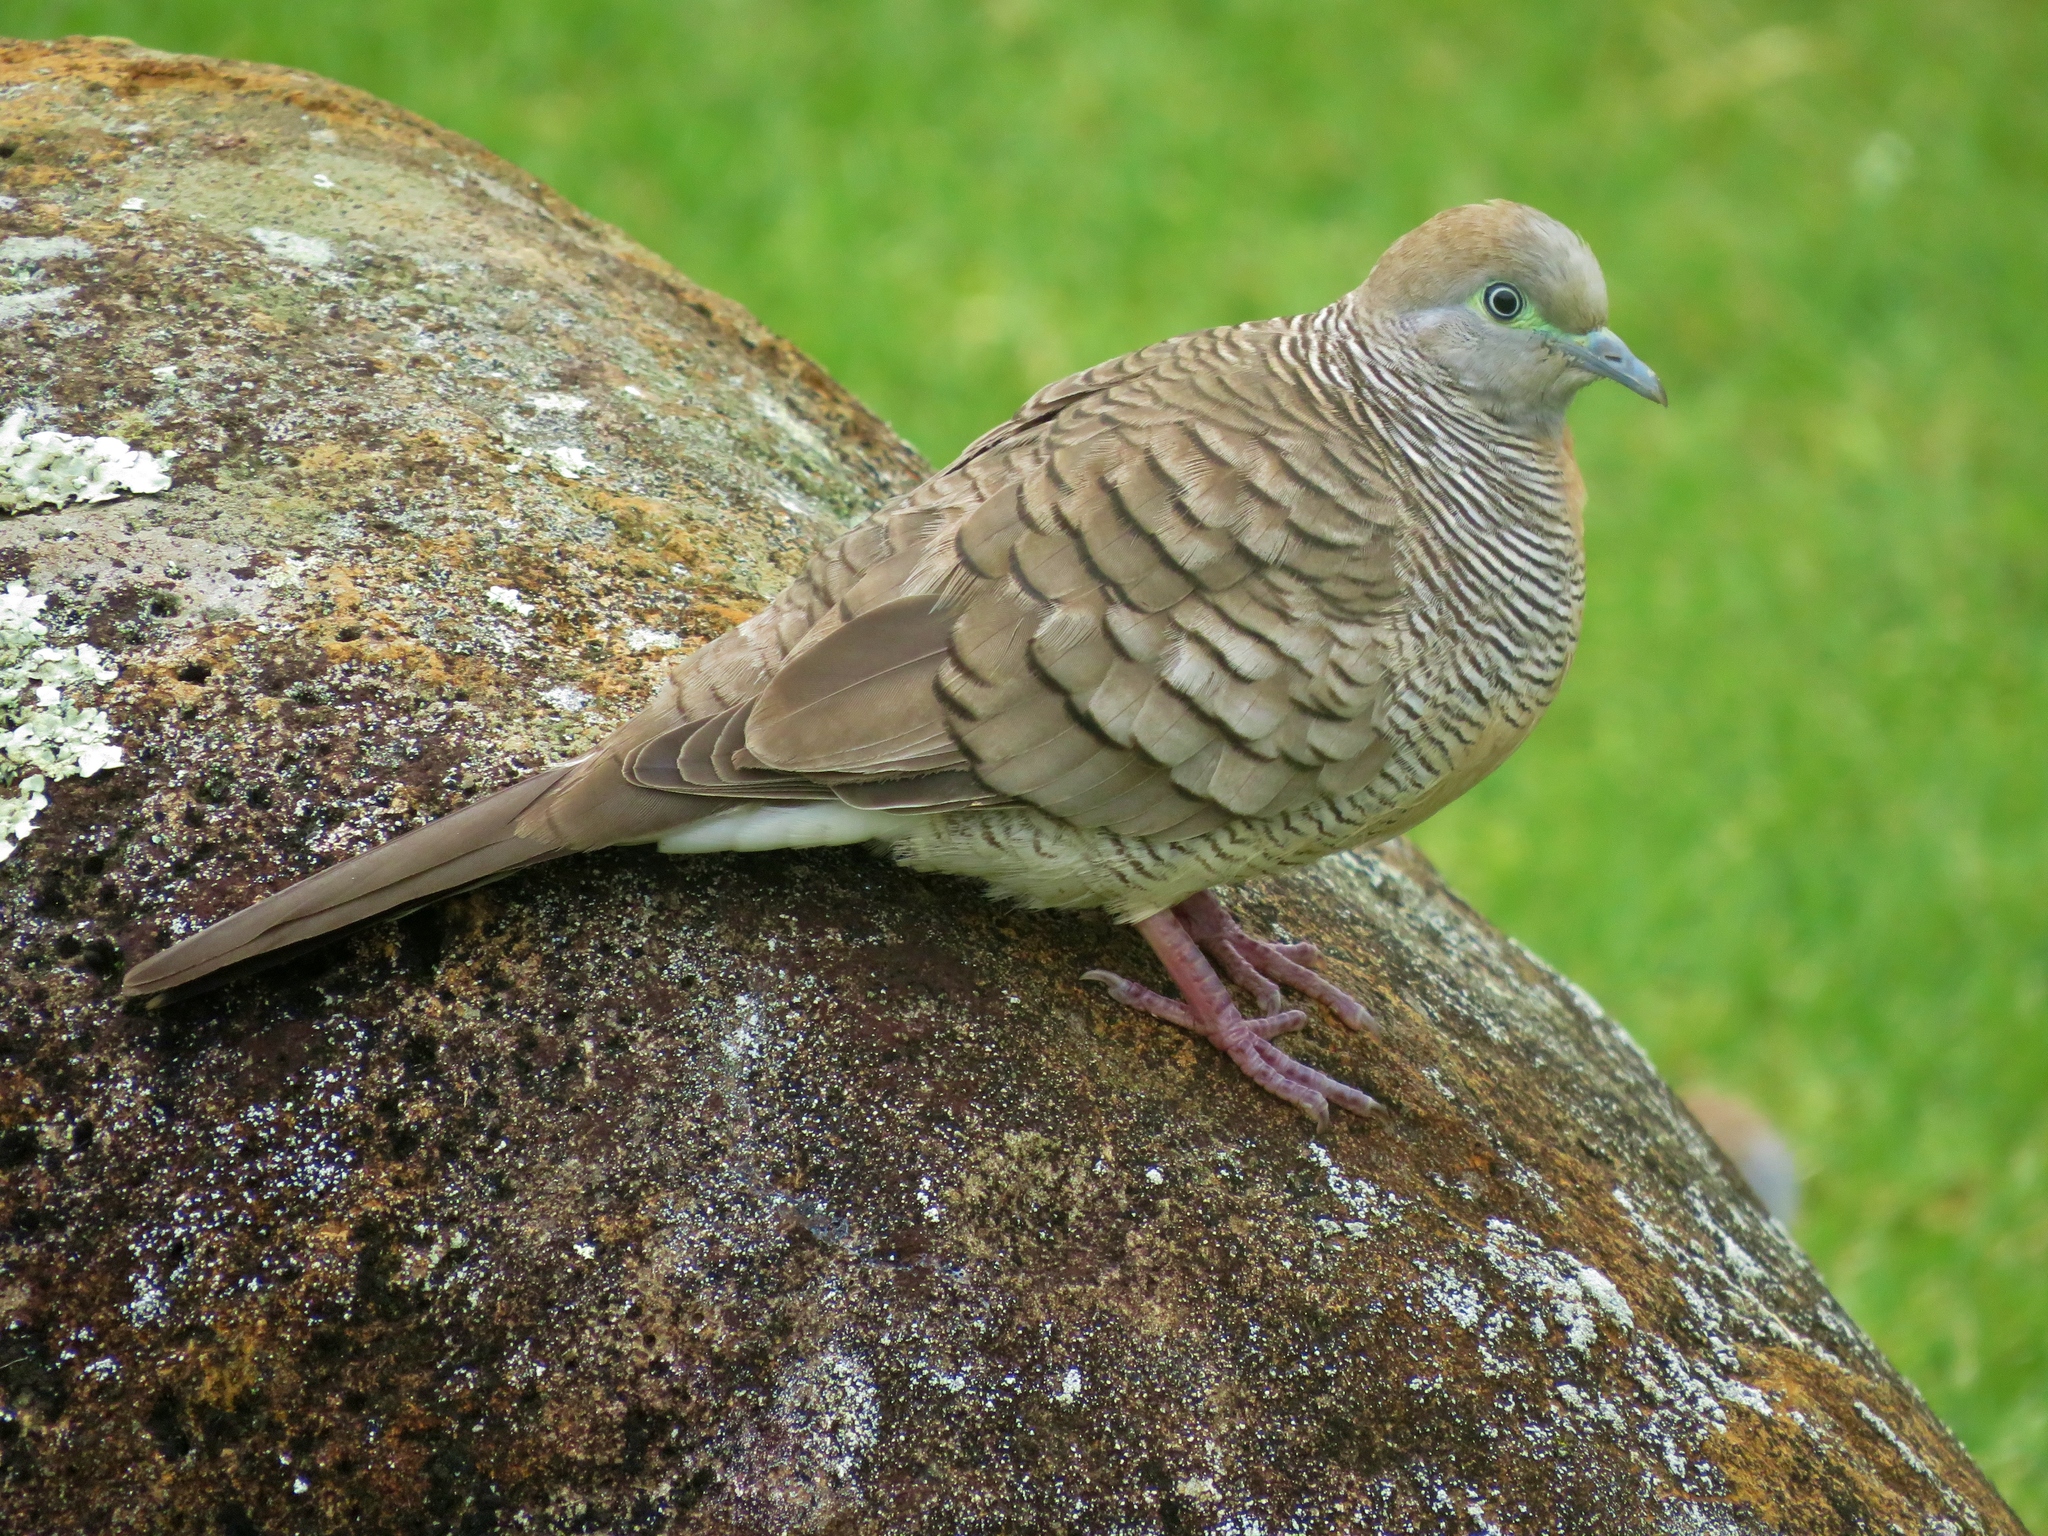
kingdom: Animalia
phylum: Chordata
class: Aves
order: Columbiformes
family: Columbidae
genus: Geopelia
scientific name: Geopelia striata
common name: Zebra dove
